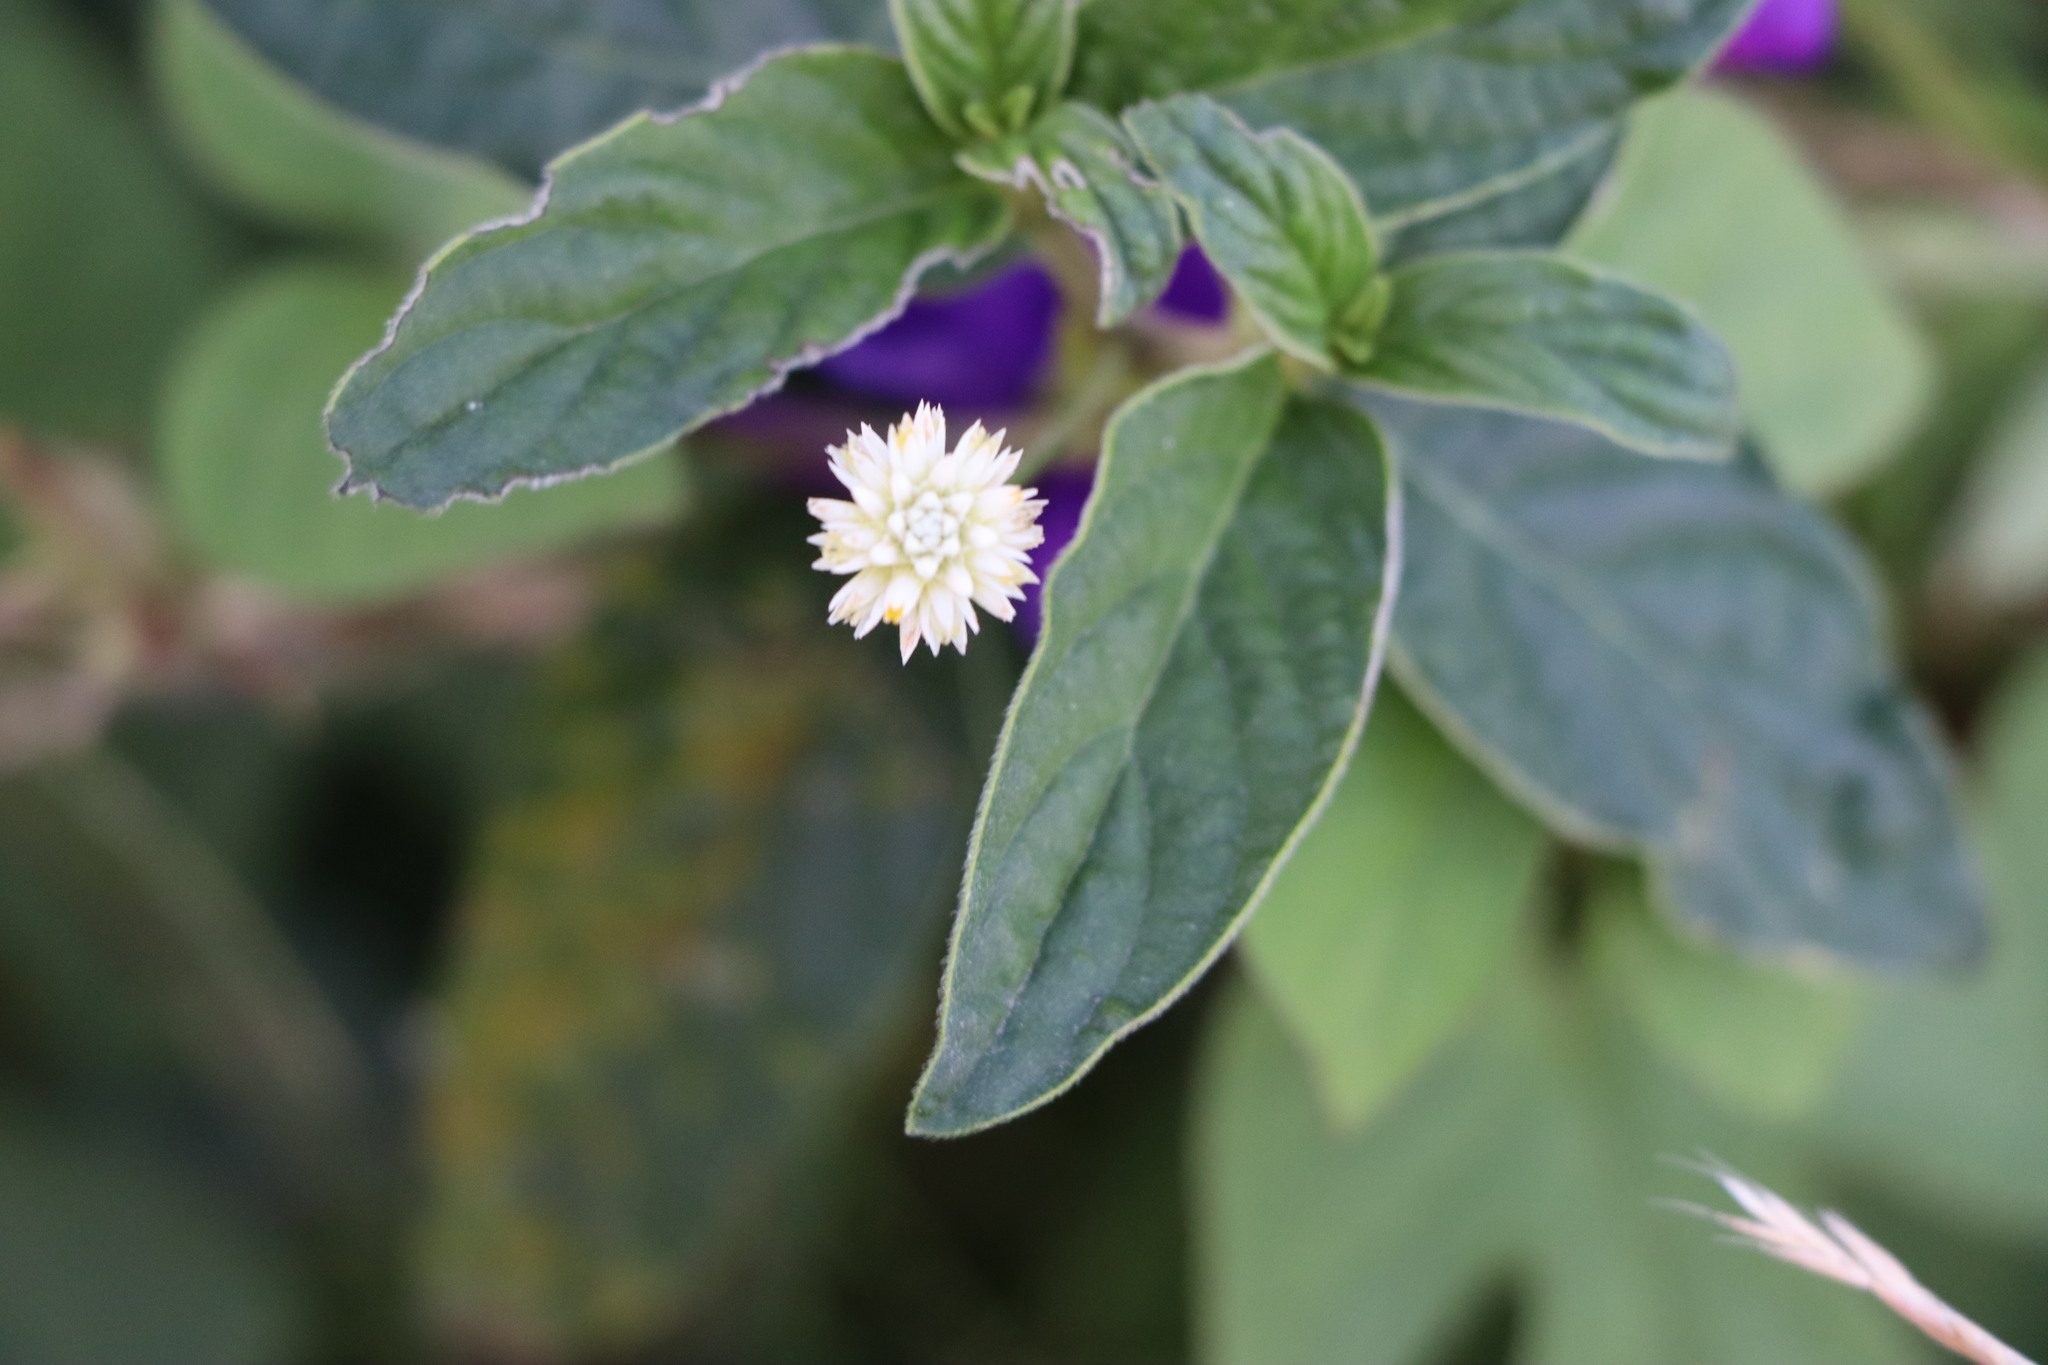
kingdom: Plantae
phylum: Tracheophyta
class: Magnoliopsida
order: Caryophyllales
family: Amaranthaceae
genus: Gomphrena
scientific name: Gomphrena elegans
